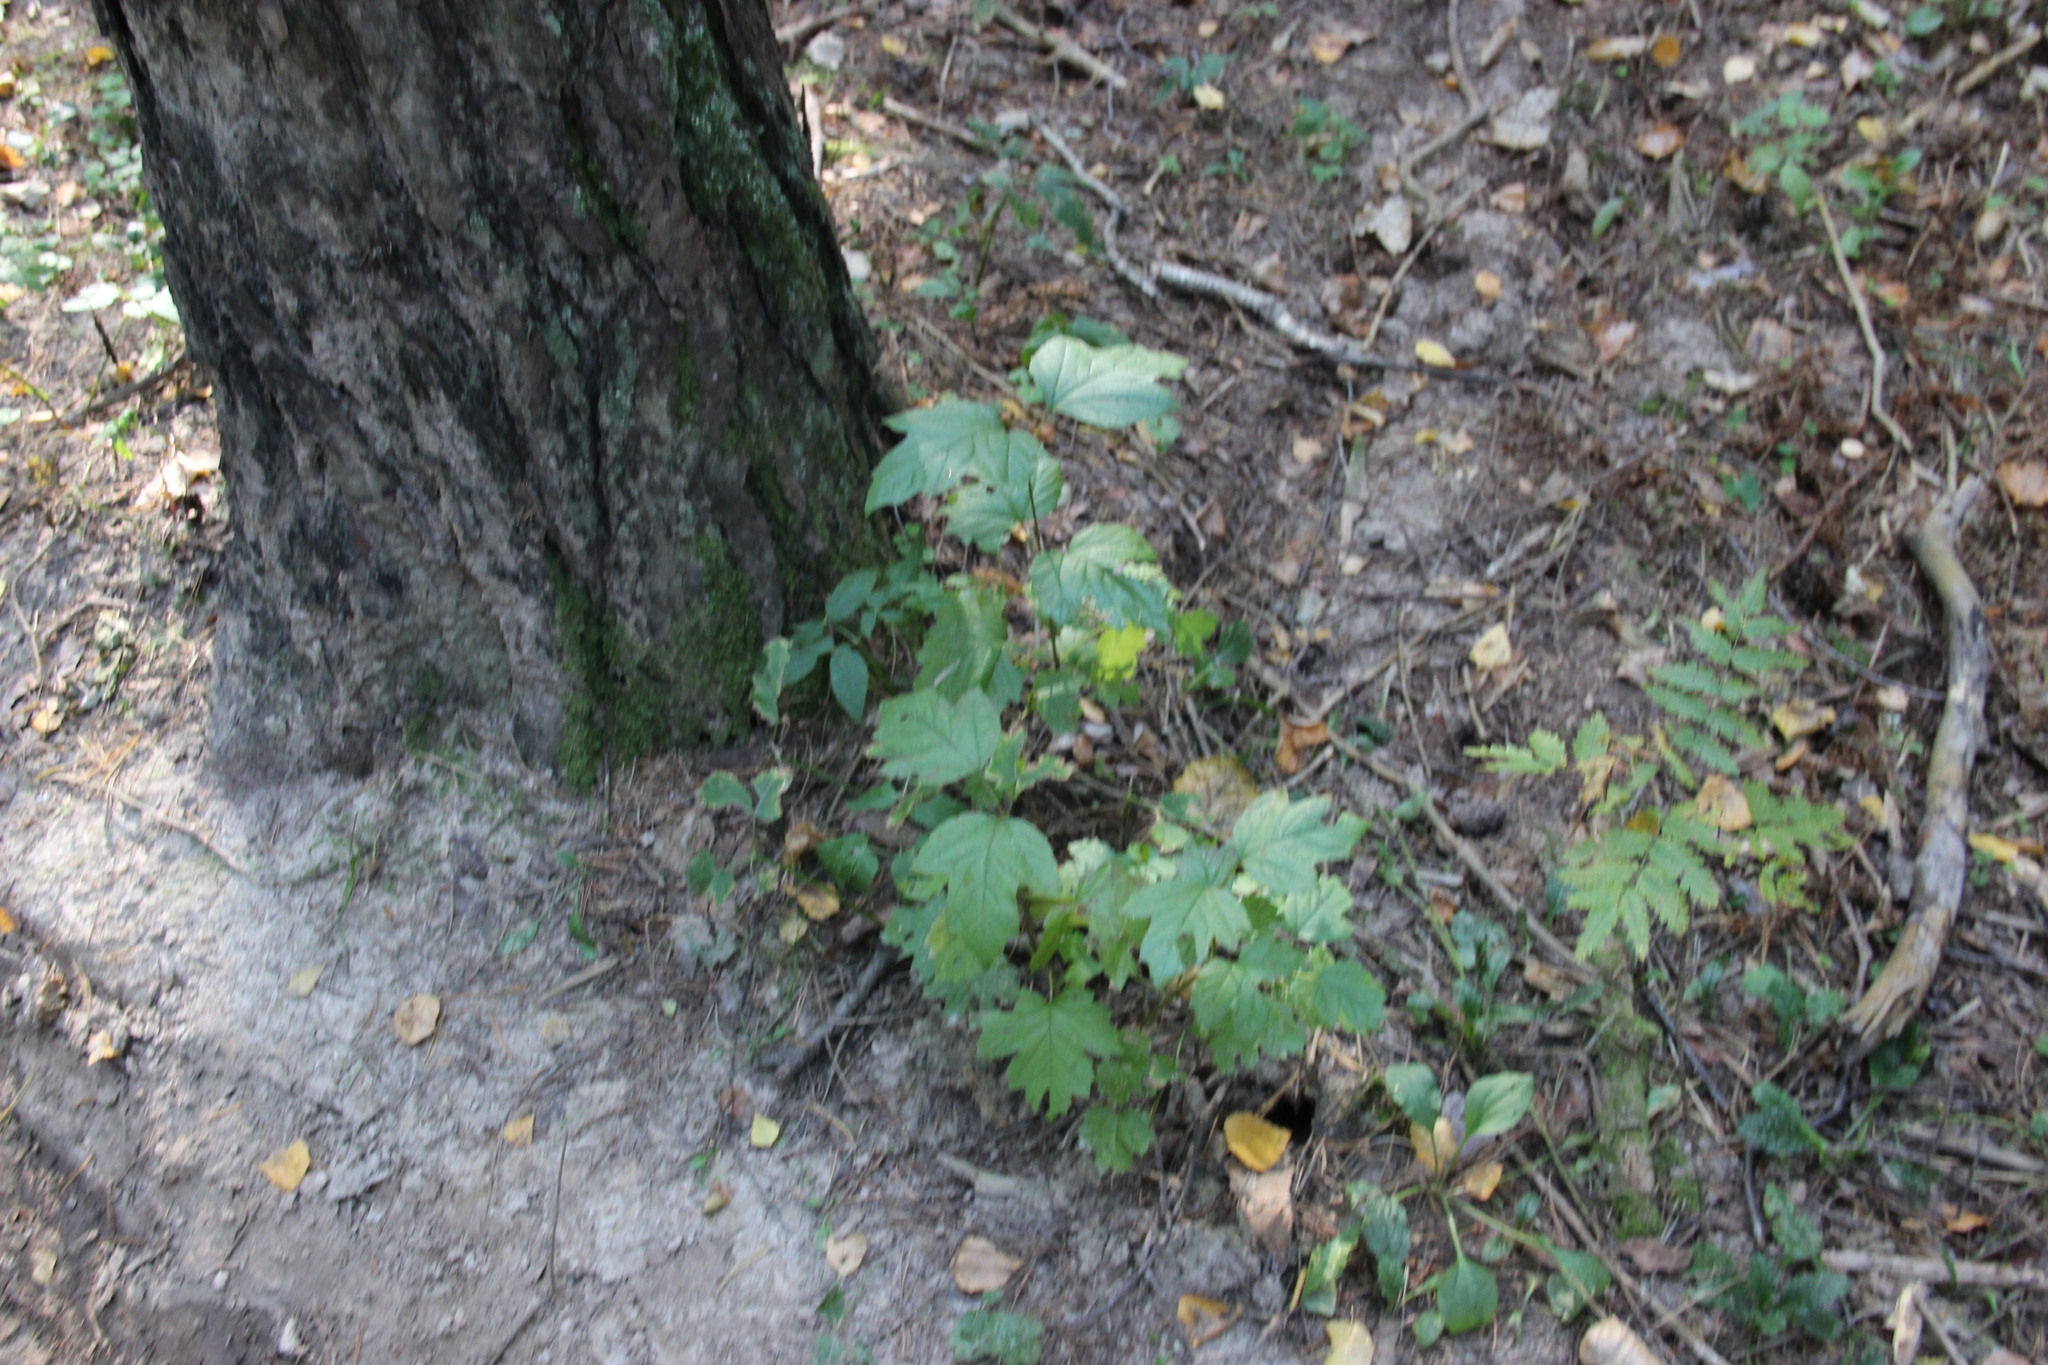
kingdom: Plantae
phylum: Tracheophyta
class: Magnoliopsida
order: Dipsacales
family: Viburnaceae
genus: Viburnum
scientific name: Viburnum opulus
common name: Guelder-rose
